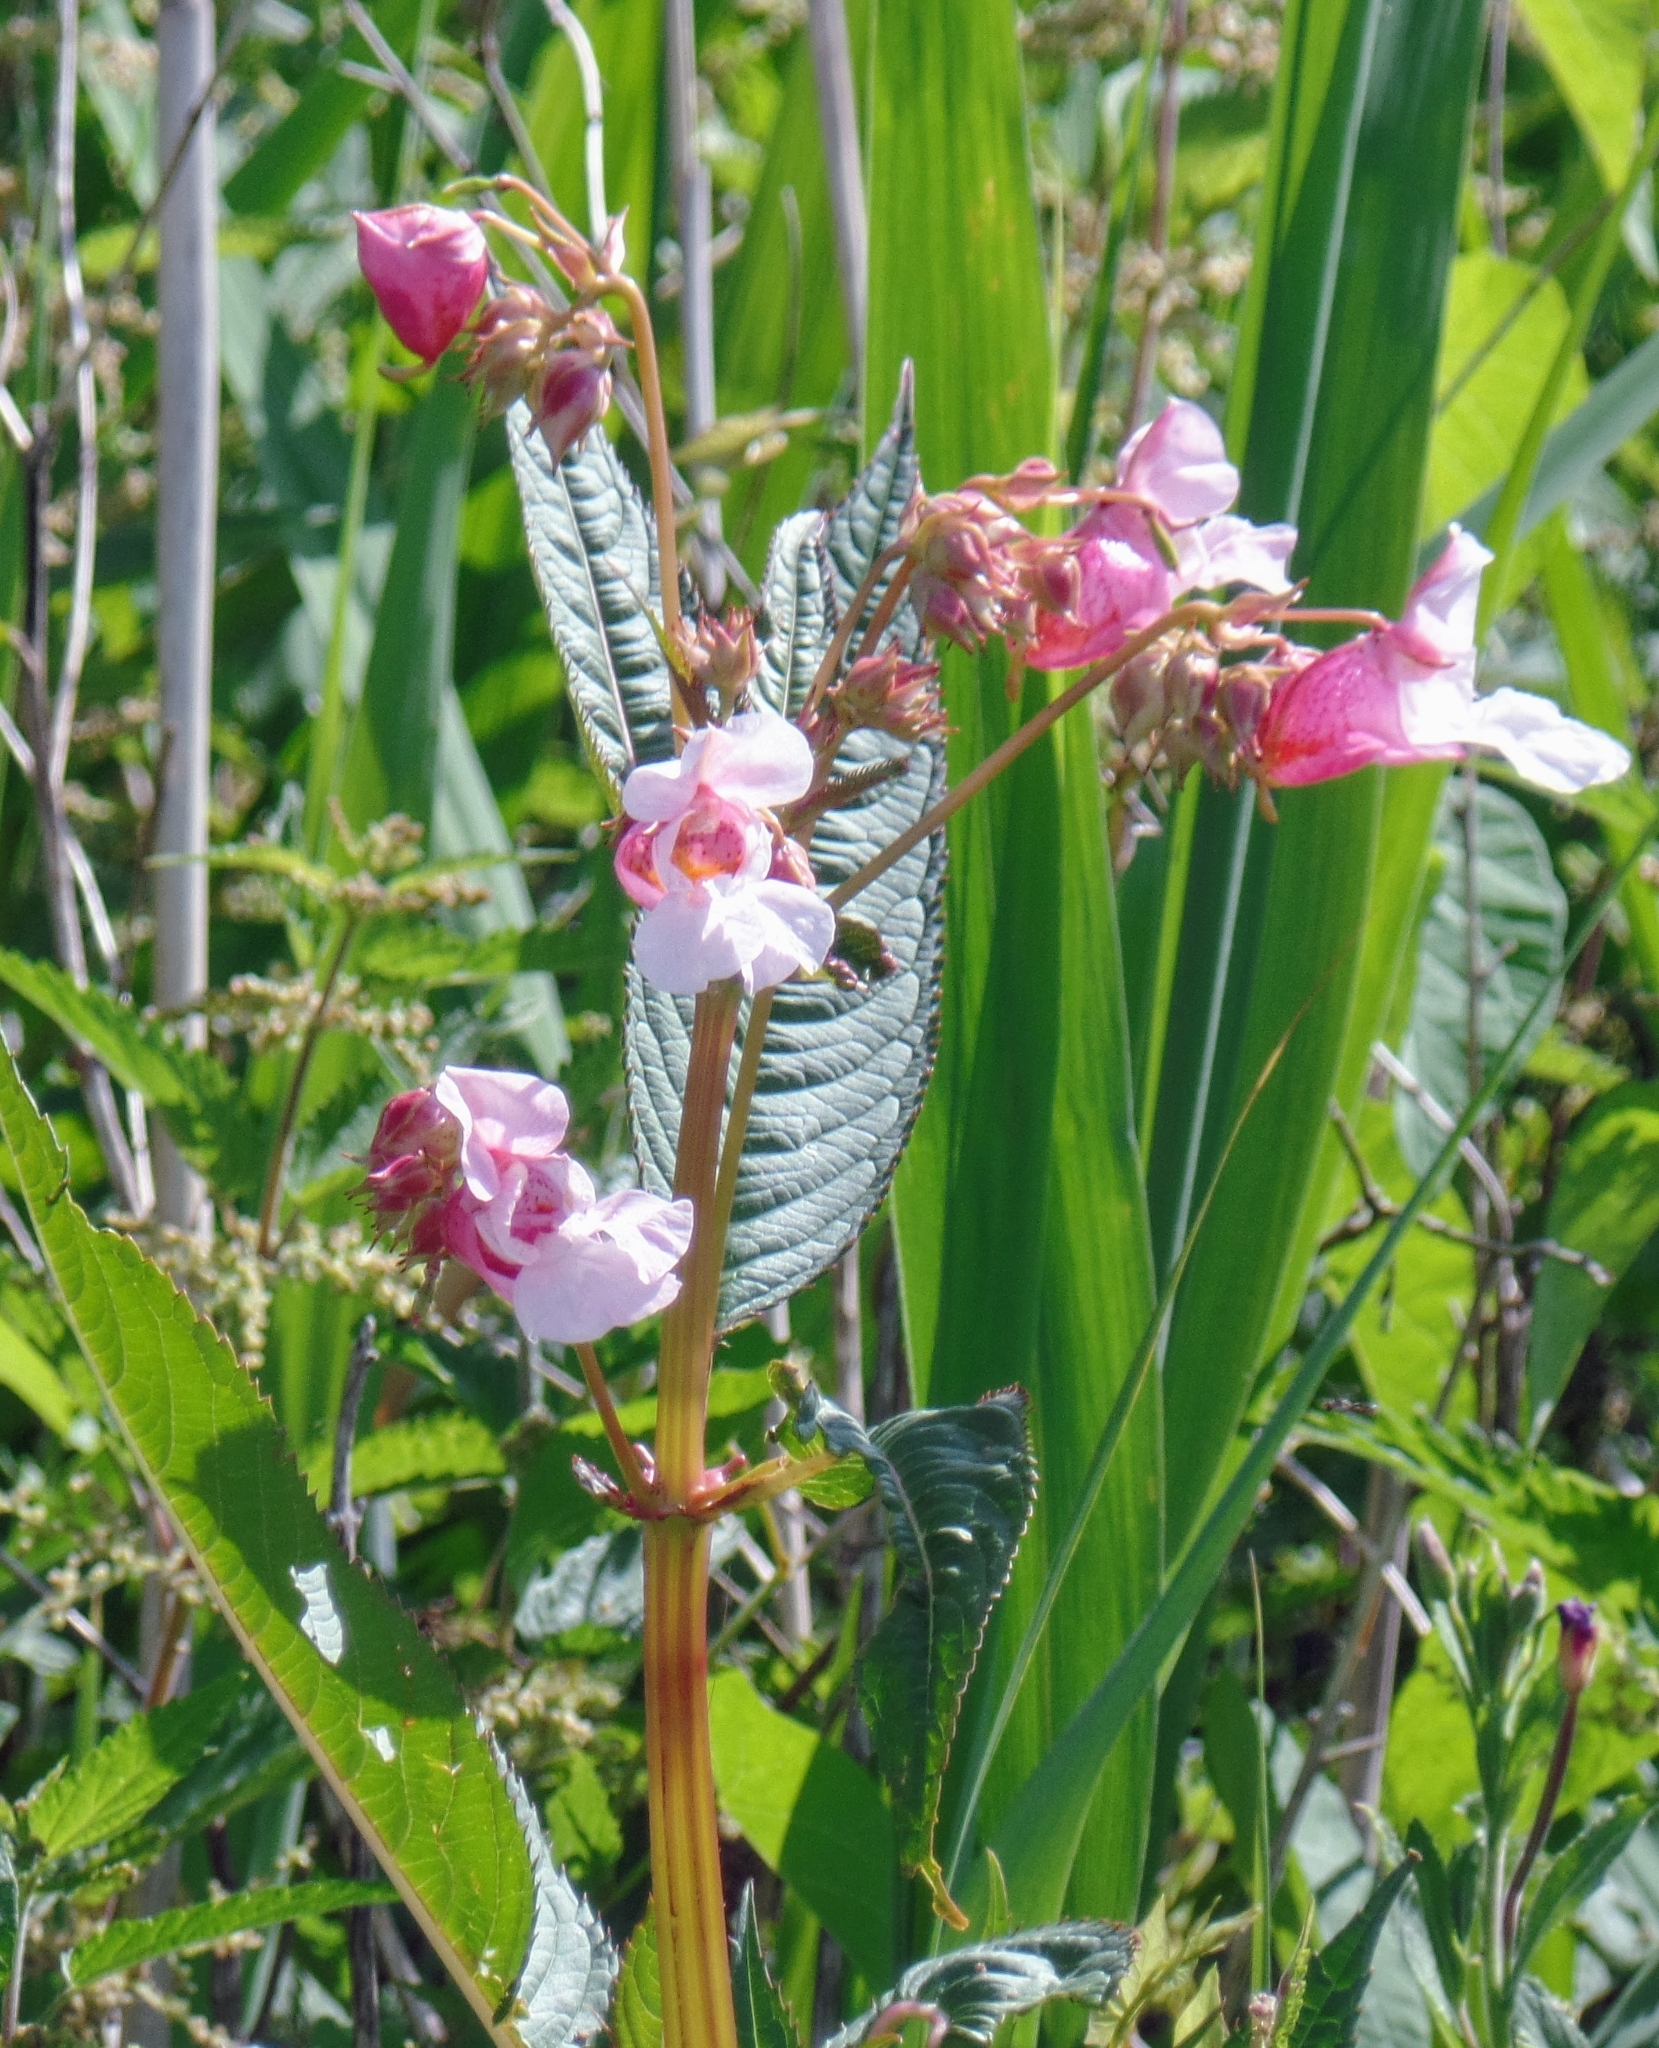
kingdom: Plantae
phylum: Tracheophyta
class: Magnoliopsida
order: Ericales
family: Balsaminaceae
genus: Impatiens
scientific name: Impatiens glandulifera
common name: Himalayan balsam
